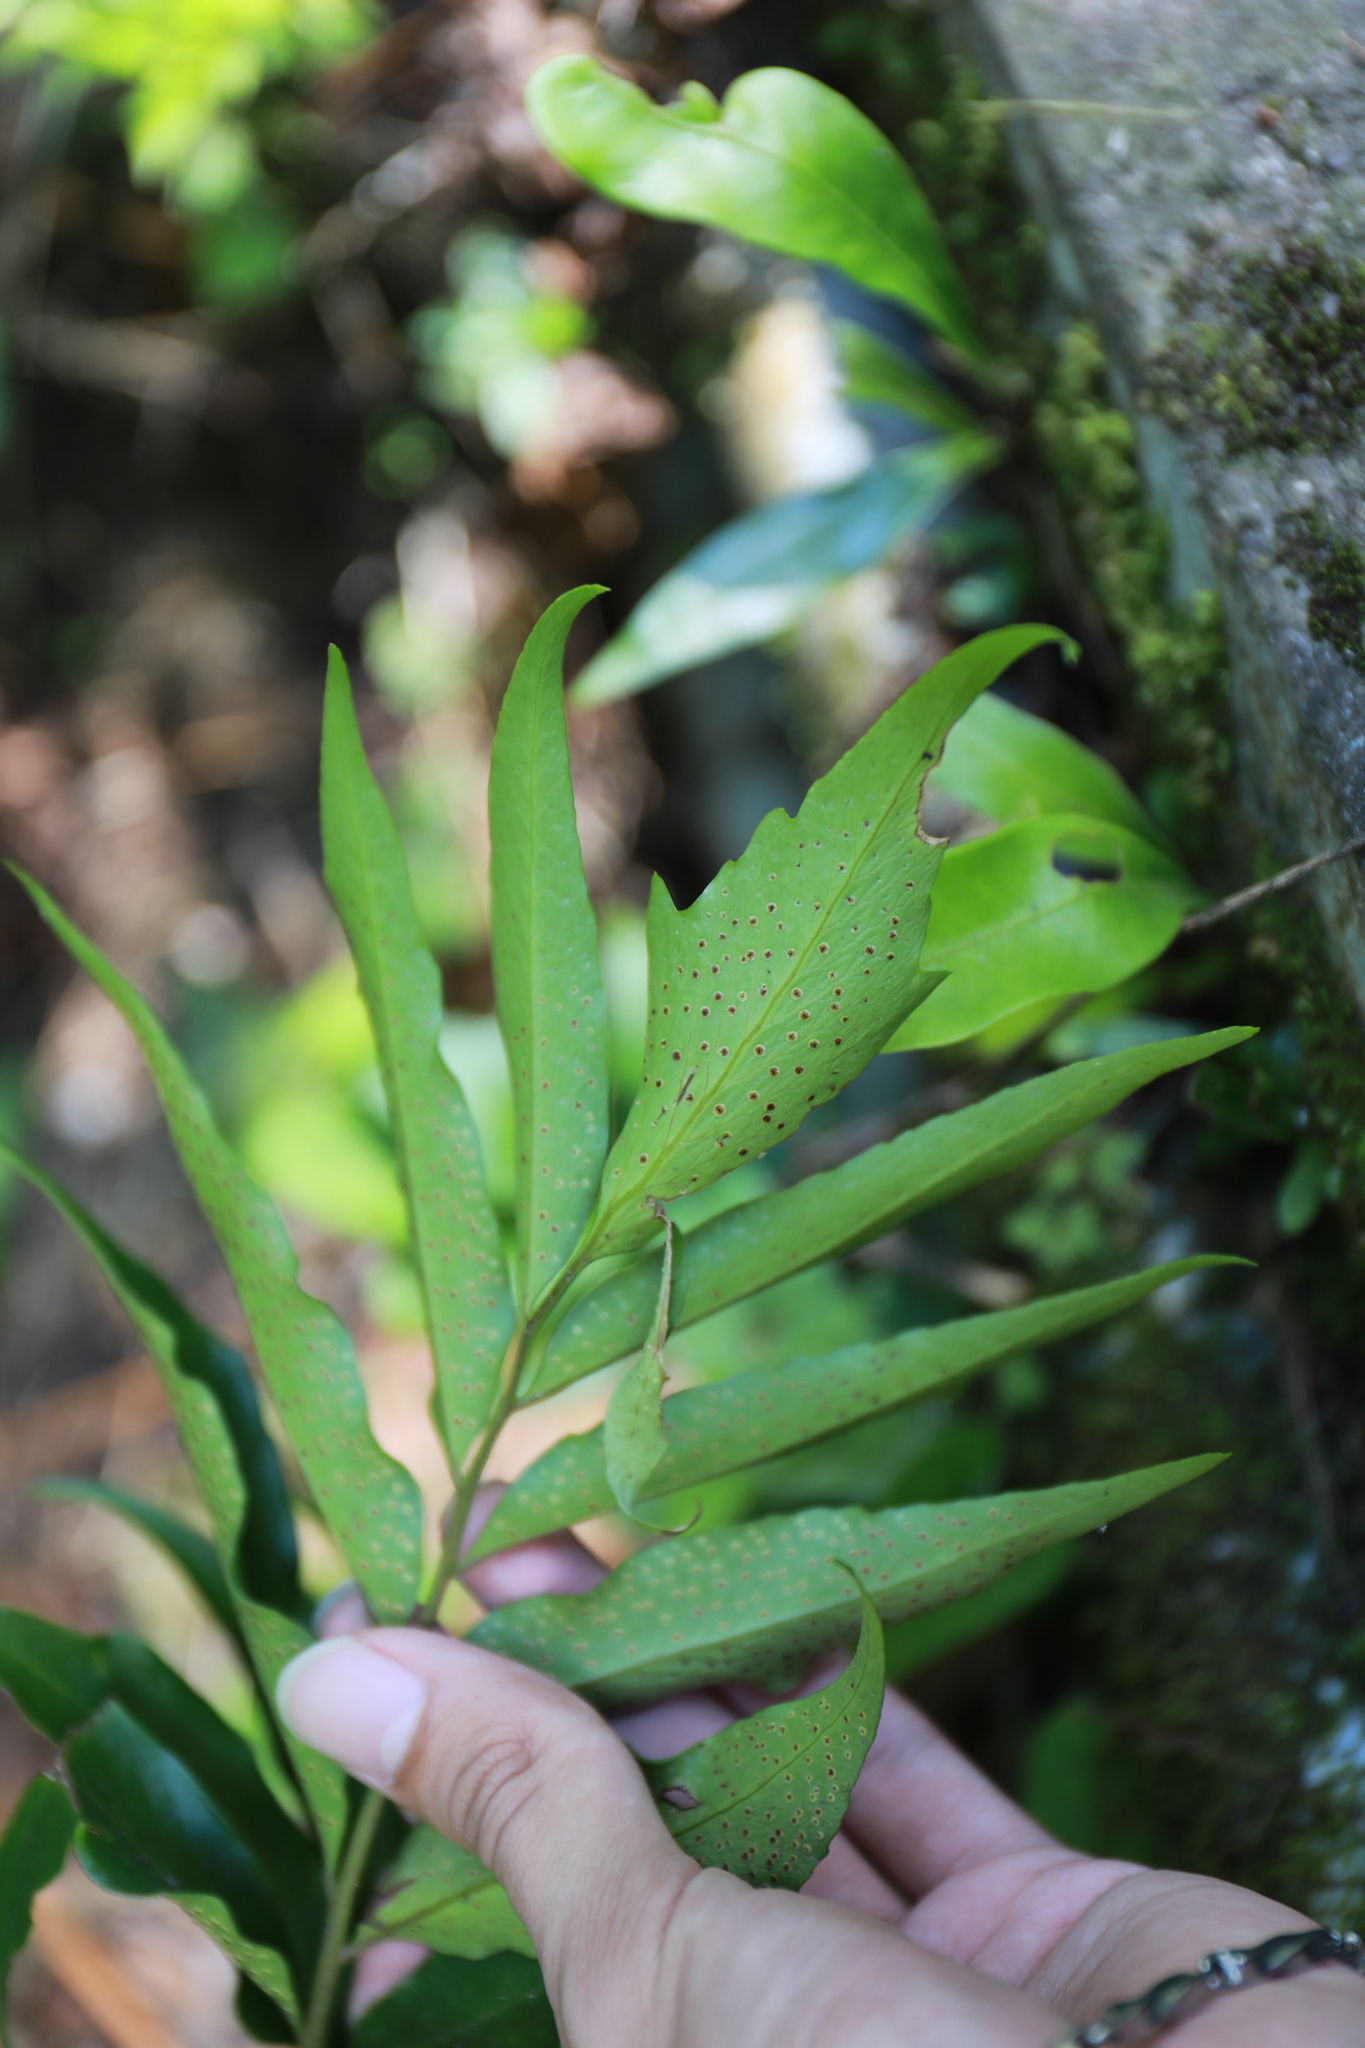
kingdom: Plantae
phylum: Tracheophyta
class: Polypodiopsida
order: Polypodiales
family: Dryopteridaceae
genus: Cyrtomium
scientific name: Cyrtomium devexiscapulae
